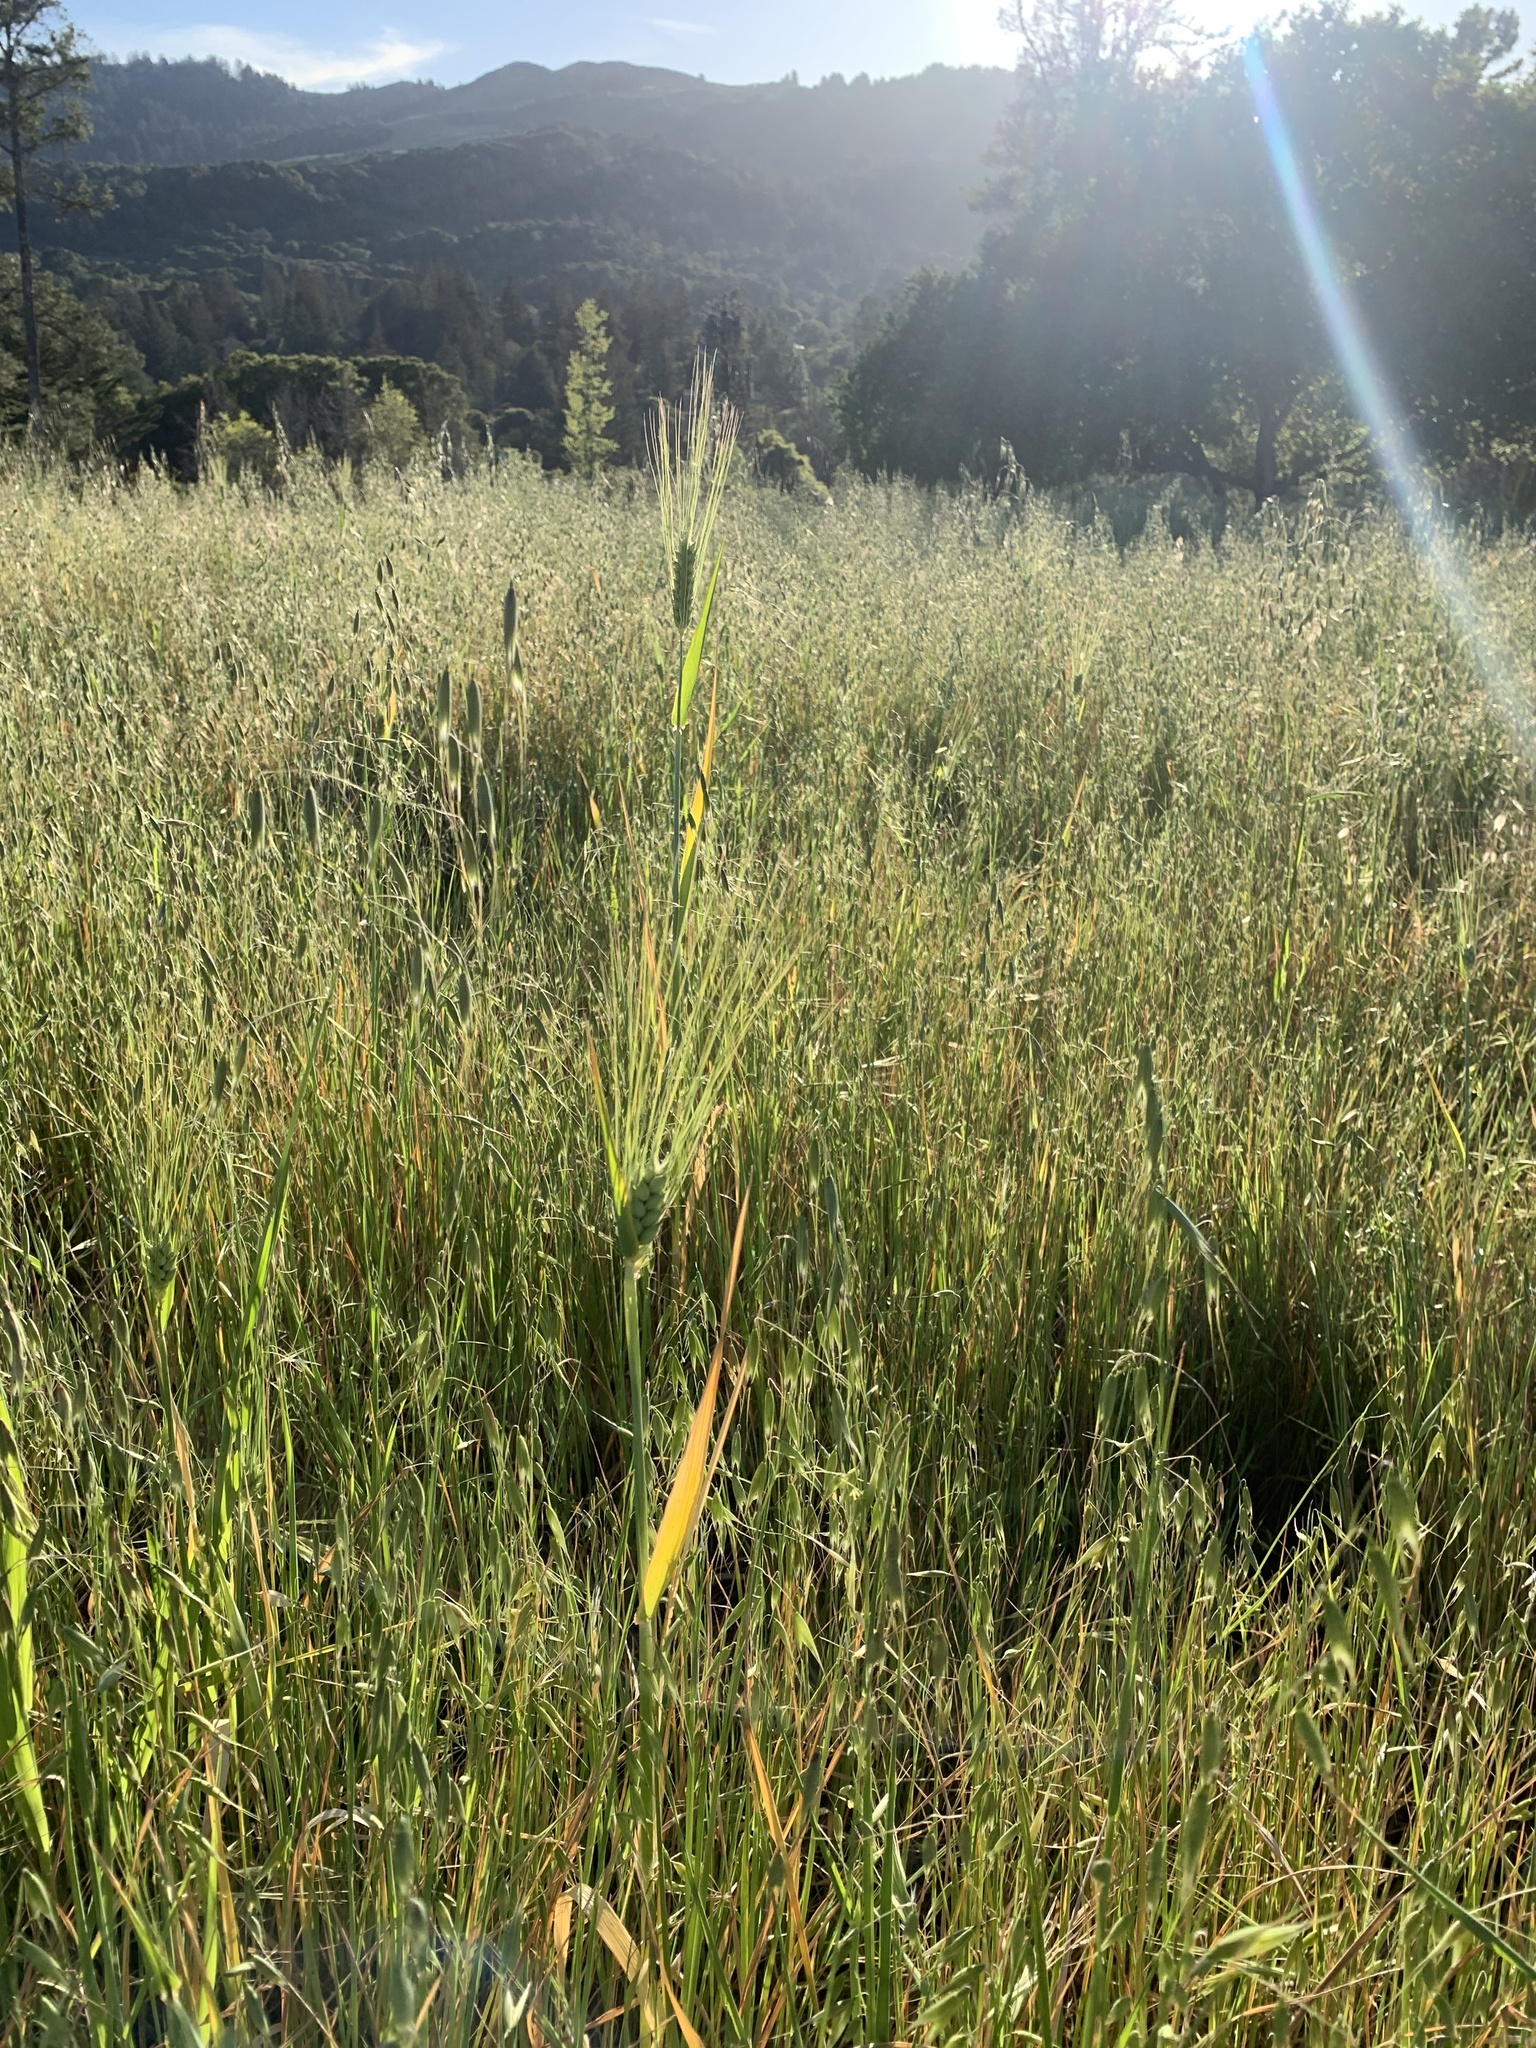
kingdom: Plantae
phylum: Tracheophyta
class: Liliopsida
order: Poales
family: Poaceae
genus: Triticum
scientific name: Triticum turgidum
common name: Rivet wheat
